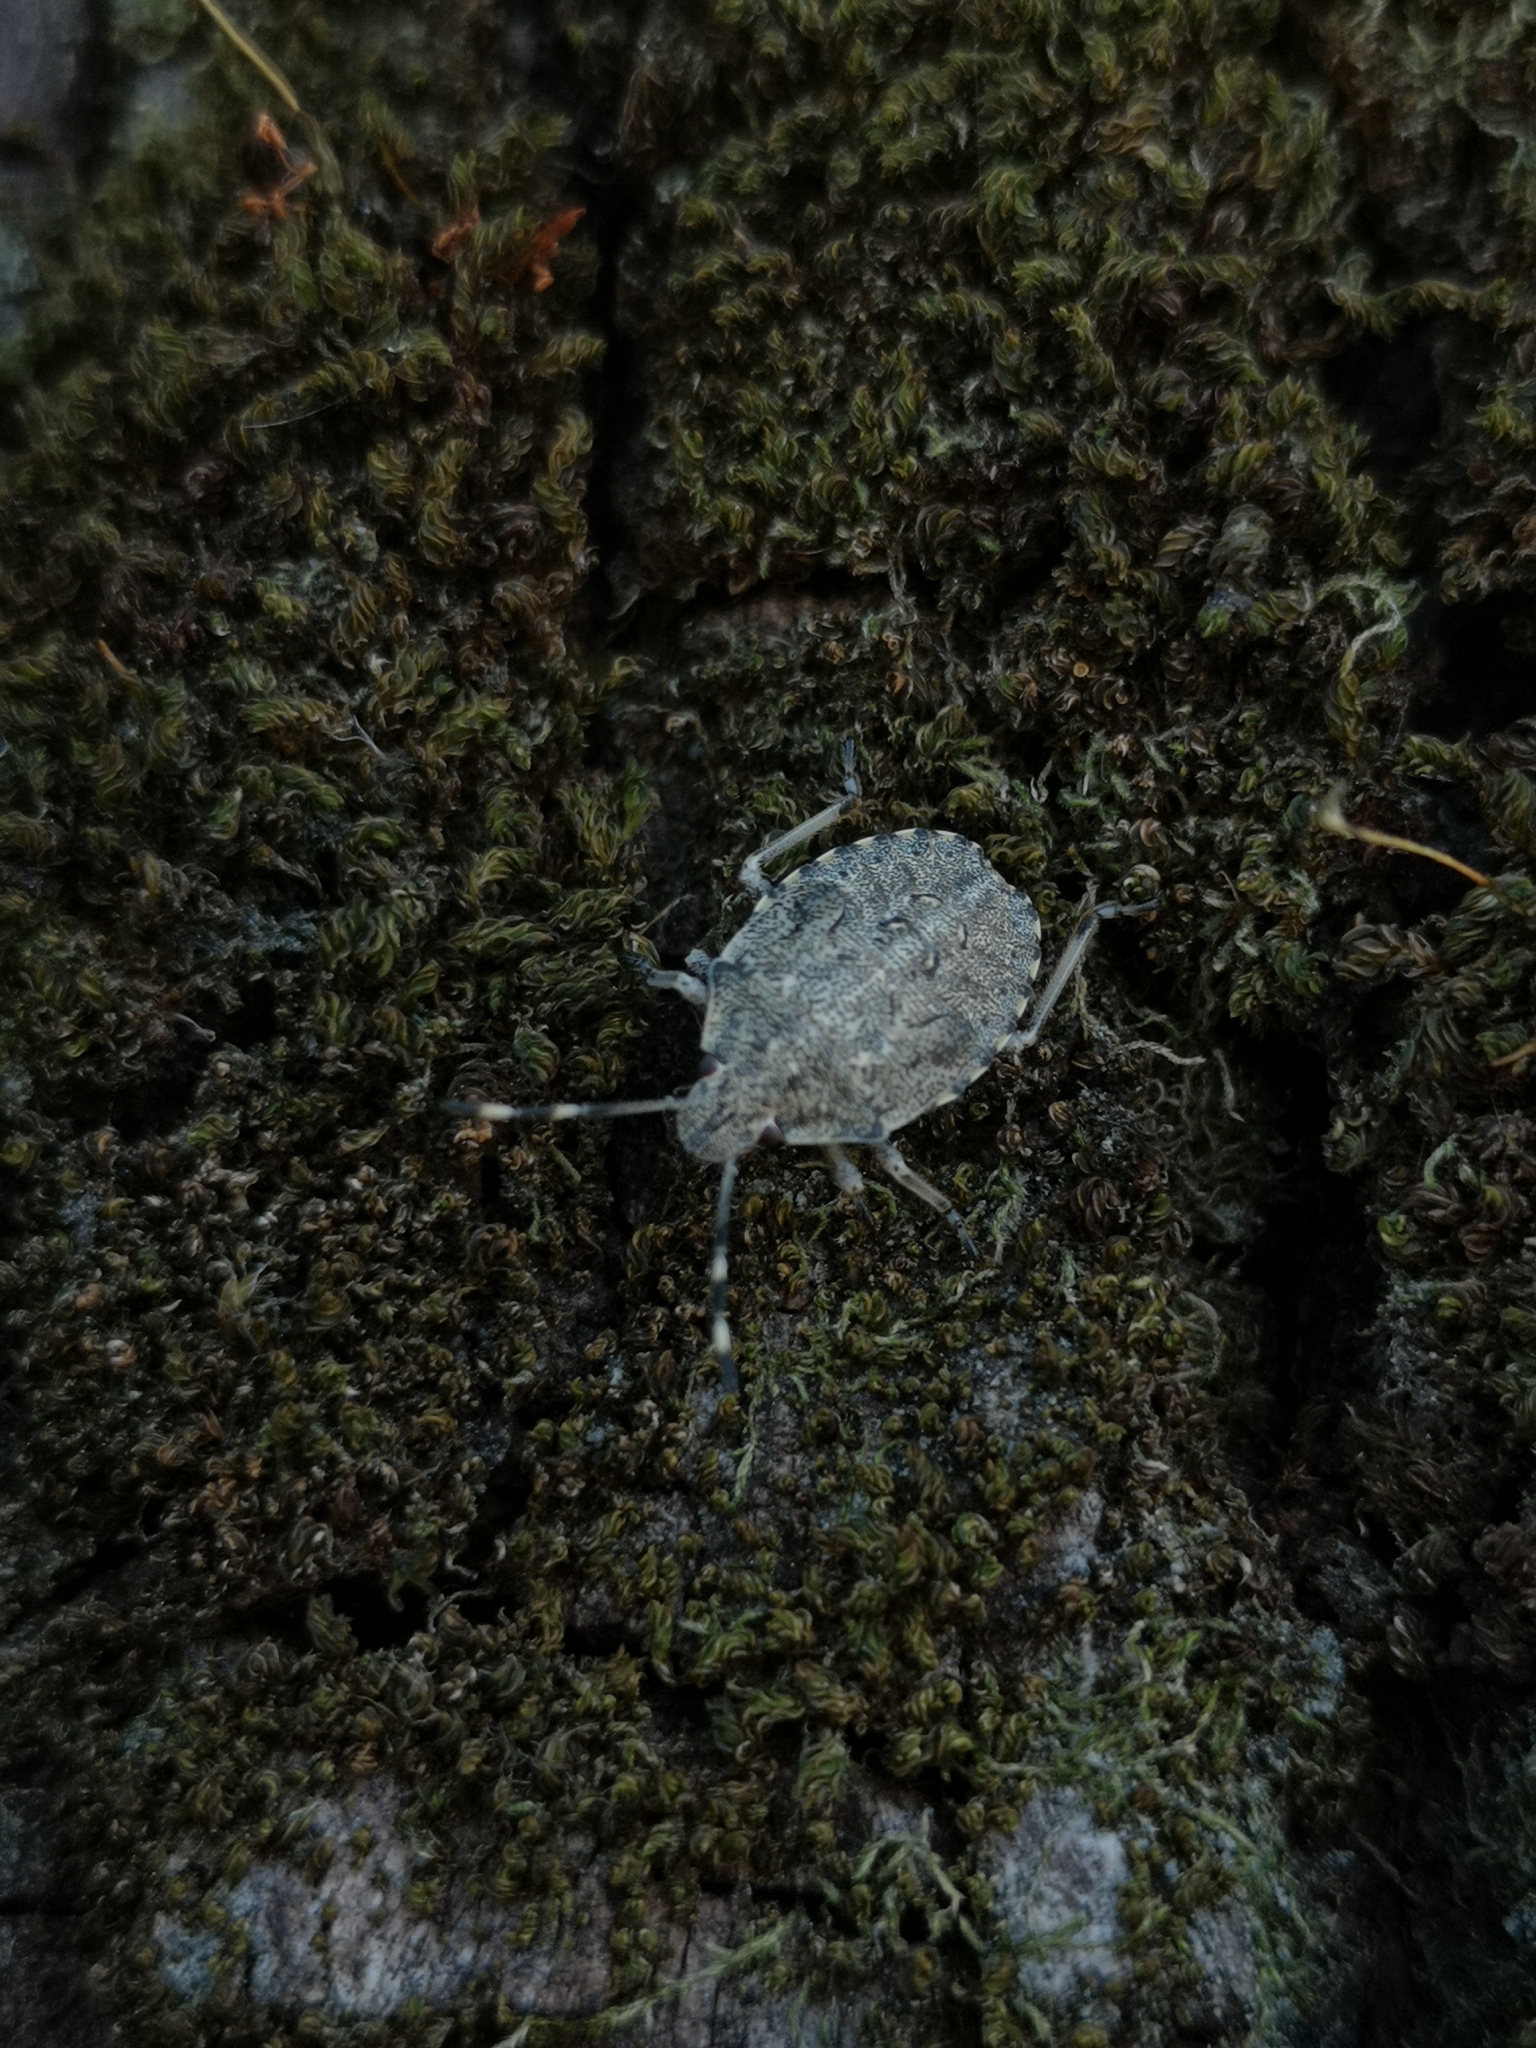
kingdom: Animalia
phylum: Arthropoda
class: Insecta
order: Hemiptera
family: Pentatomidae
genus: Rhaphigaster
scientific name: Rhaphigaster nebulosa
